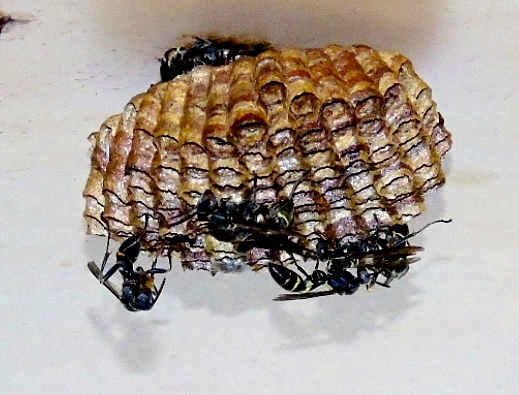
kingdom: Animalia
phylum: Arthropoda
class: Insecta
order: Hymenoptera
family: Vespidae
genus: Mischocyttarus
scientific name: Mischocyttarus
